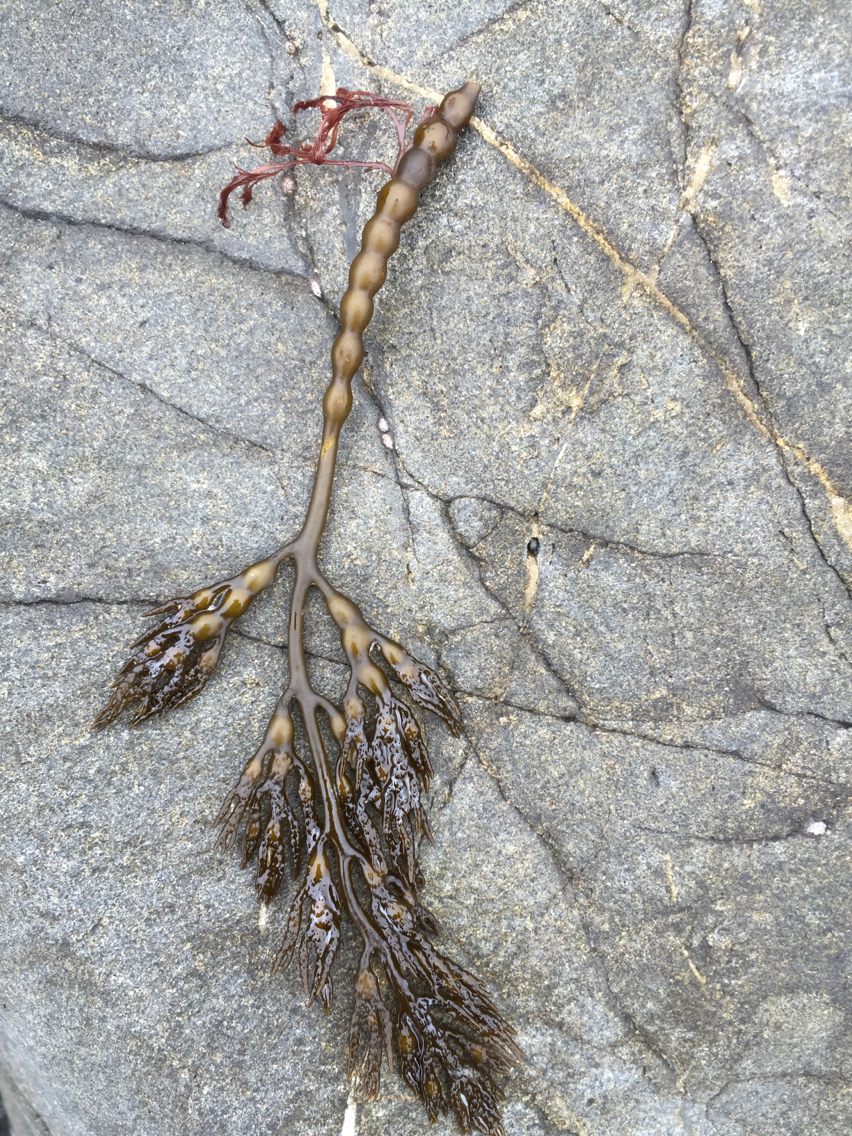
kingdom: Chromista
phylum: Ochrophyta
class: Phaeophyceae
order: Fucales
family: Sargassaceae
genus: Stephanocystis
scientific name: Stephanocystis
